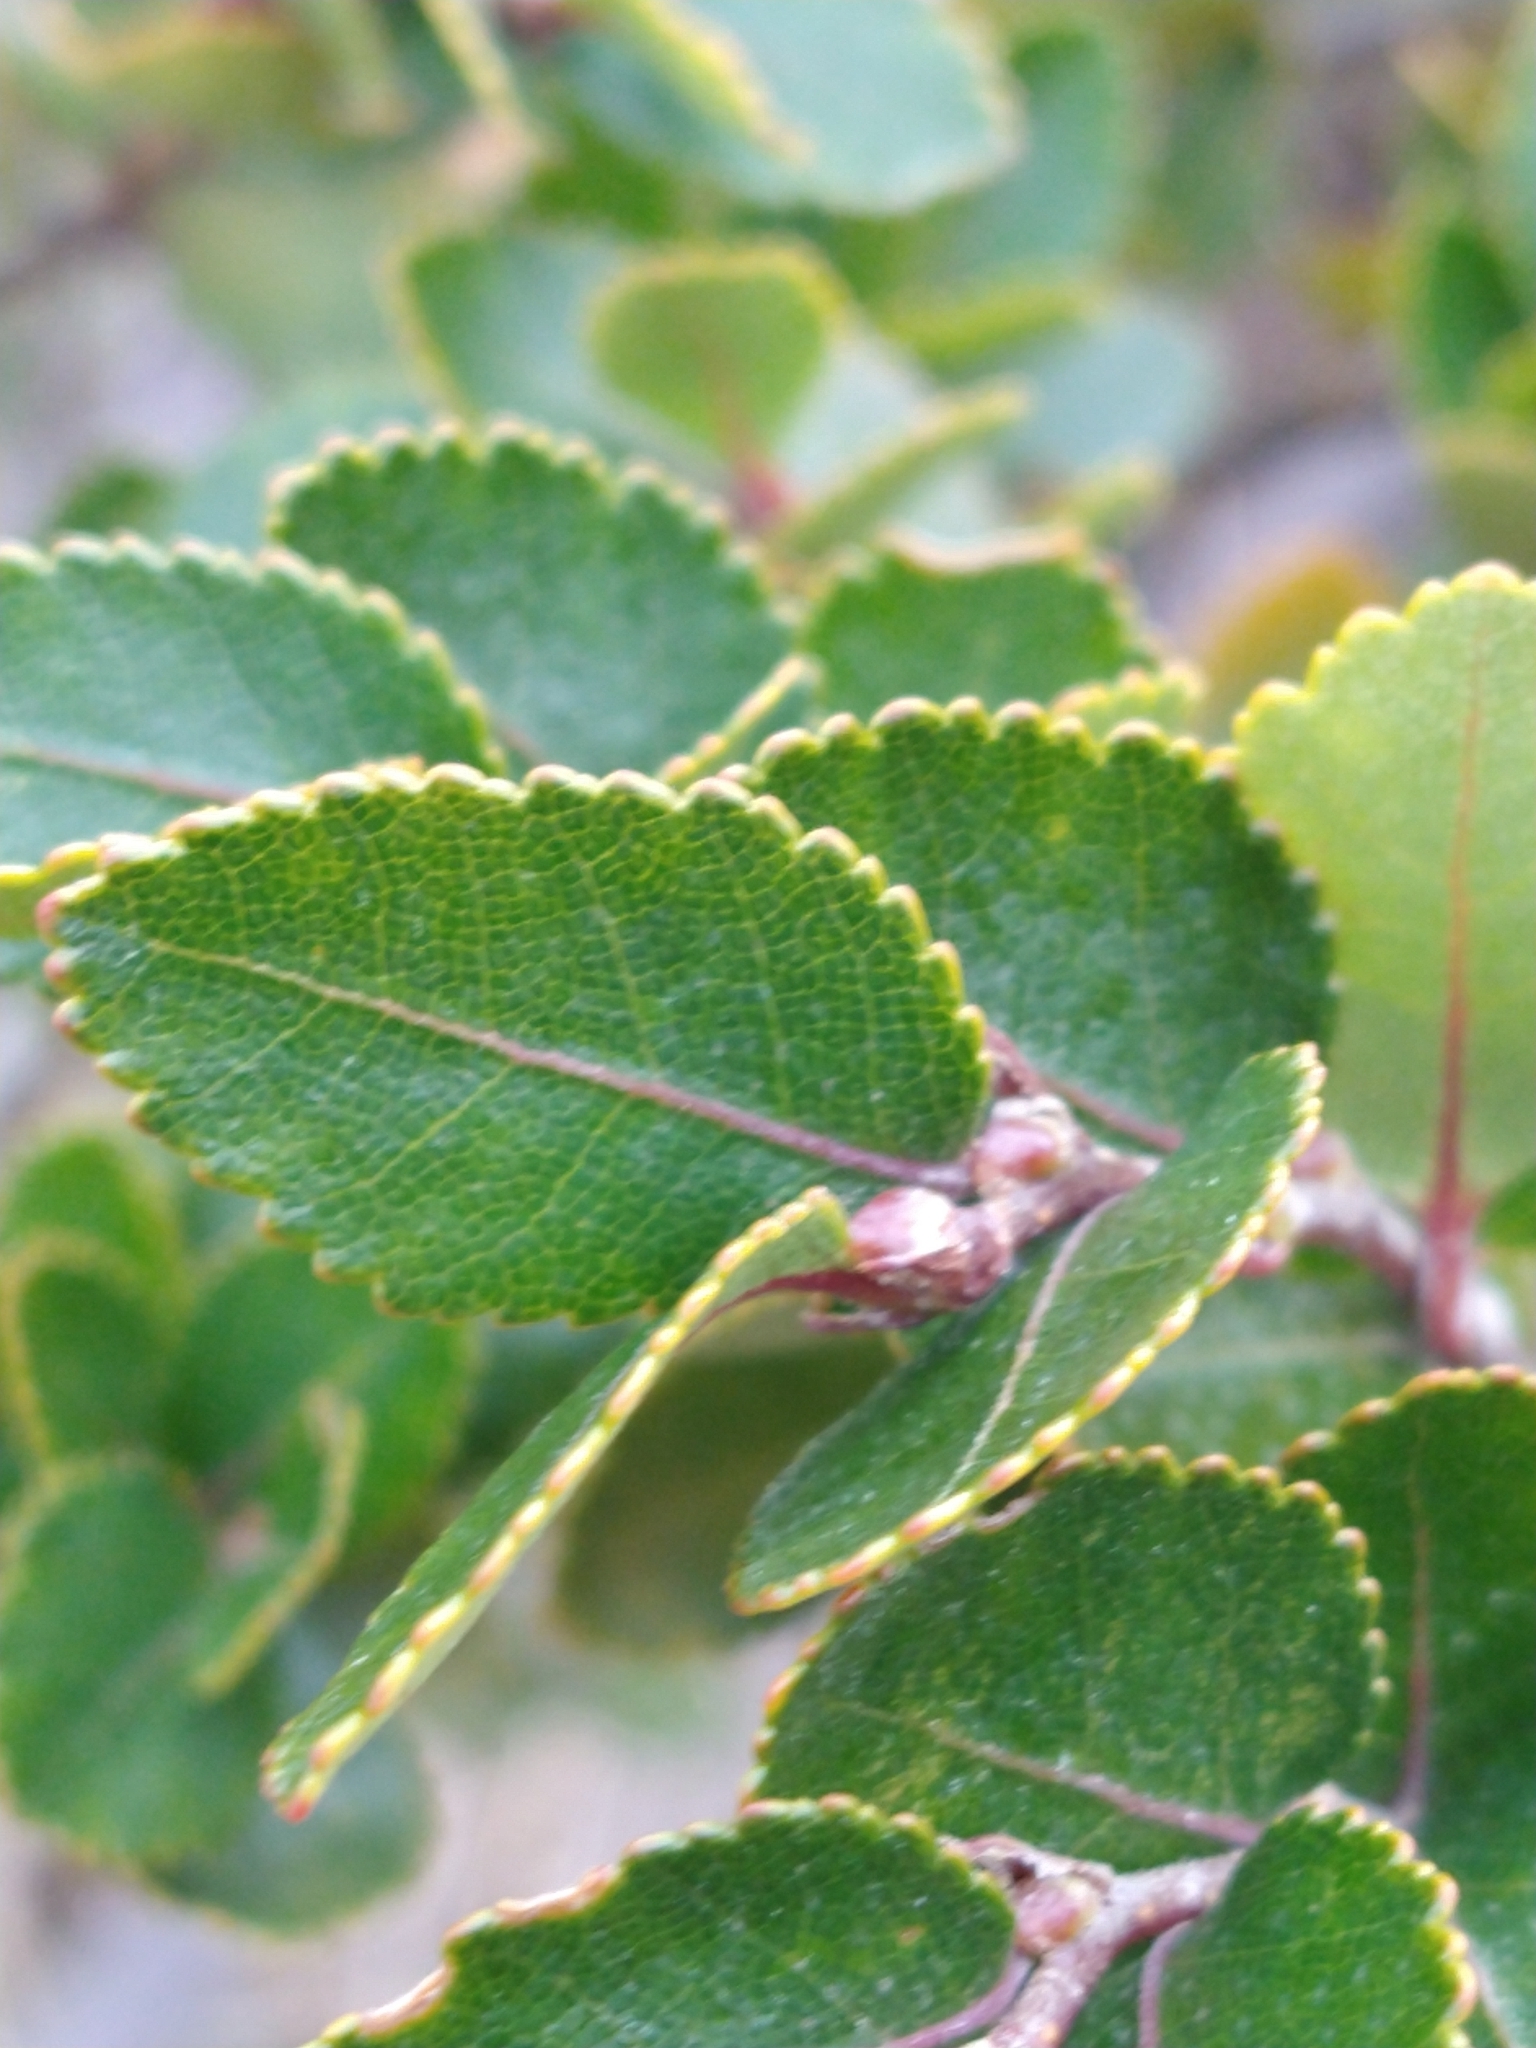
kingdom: Plantae
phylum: Tracheophyta
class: Magnoliopsida
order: Fagales
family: Nothofagaceae
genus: Nothofagus
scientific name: Nothofagus betuloides
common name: Magellan's beech
